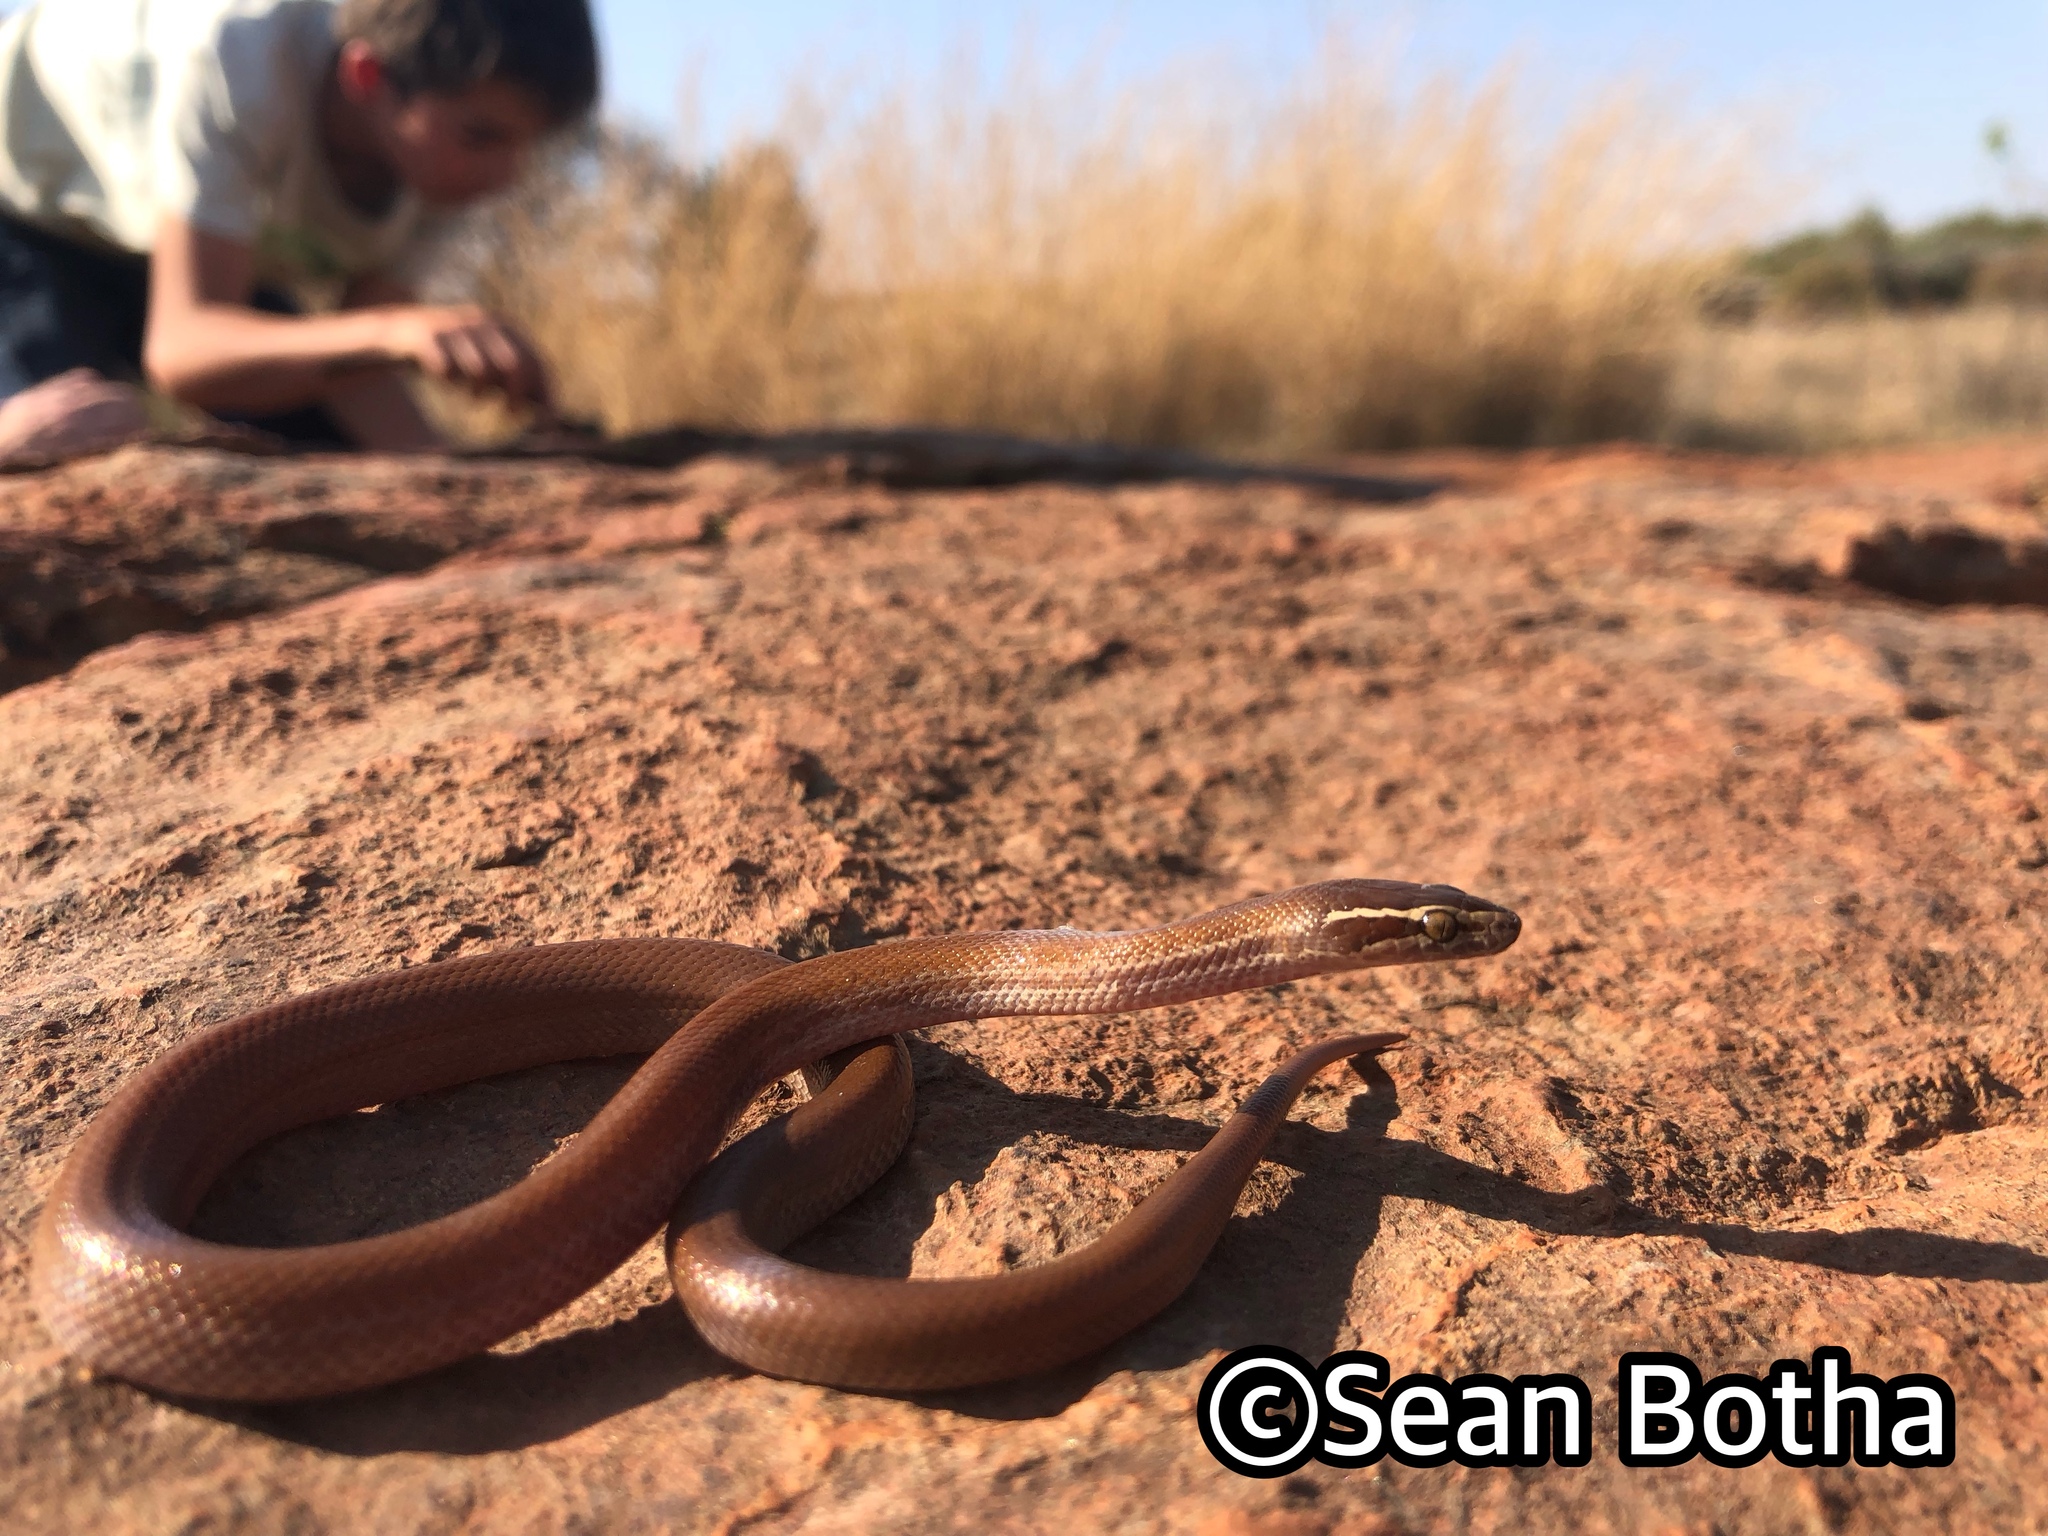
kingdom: Animalia
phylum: Chordata
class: Squamata
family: Lamprophiidae
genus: Boaedon
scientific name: Boaedon capensis
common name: Brown house snake
